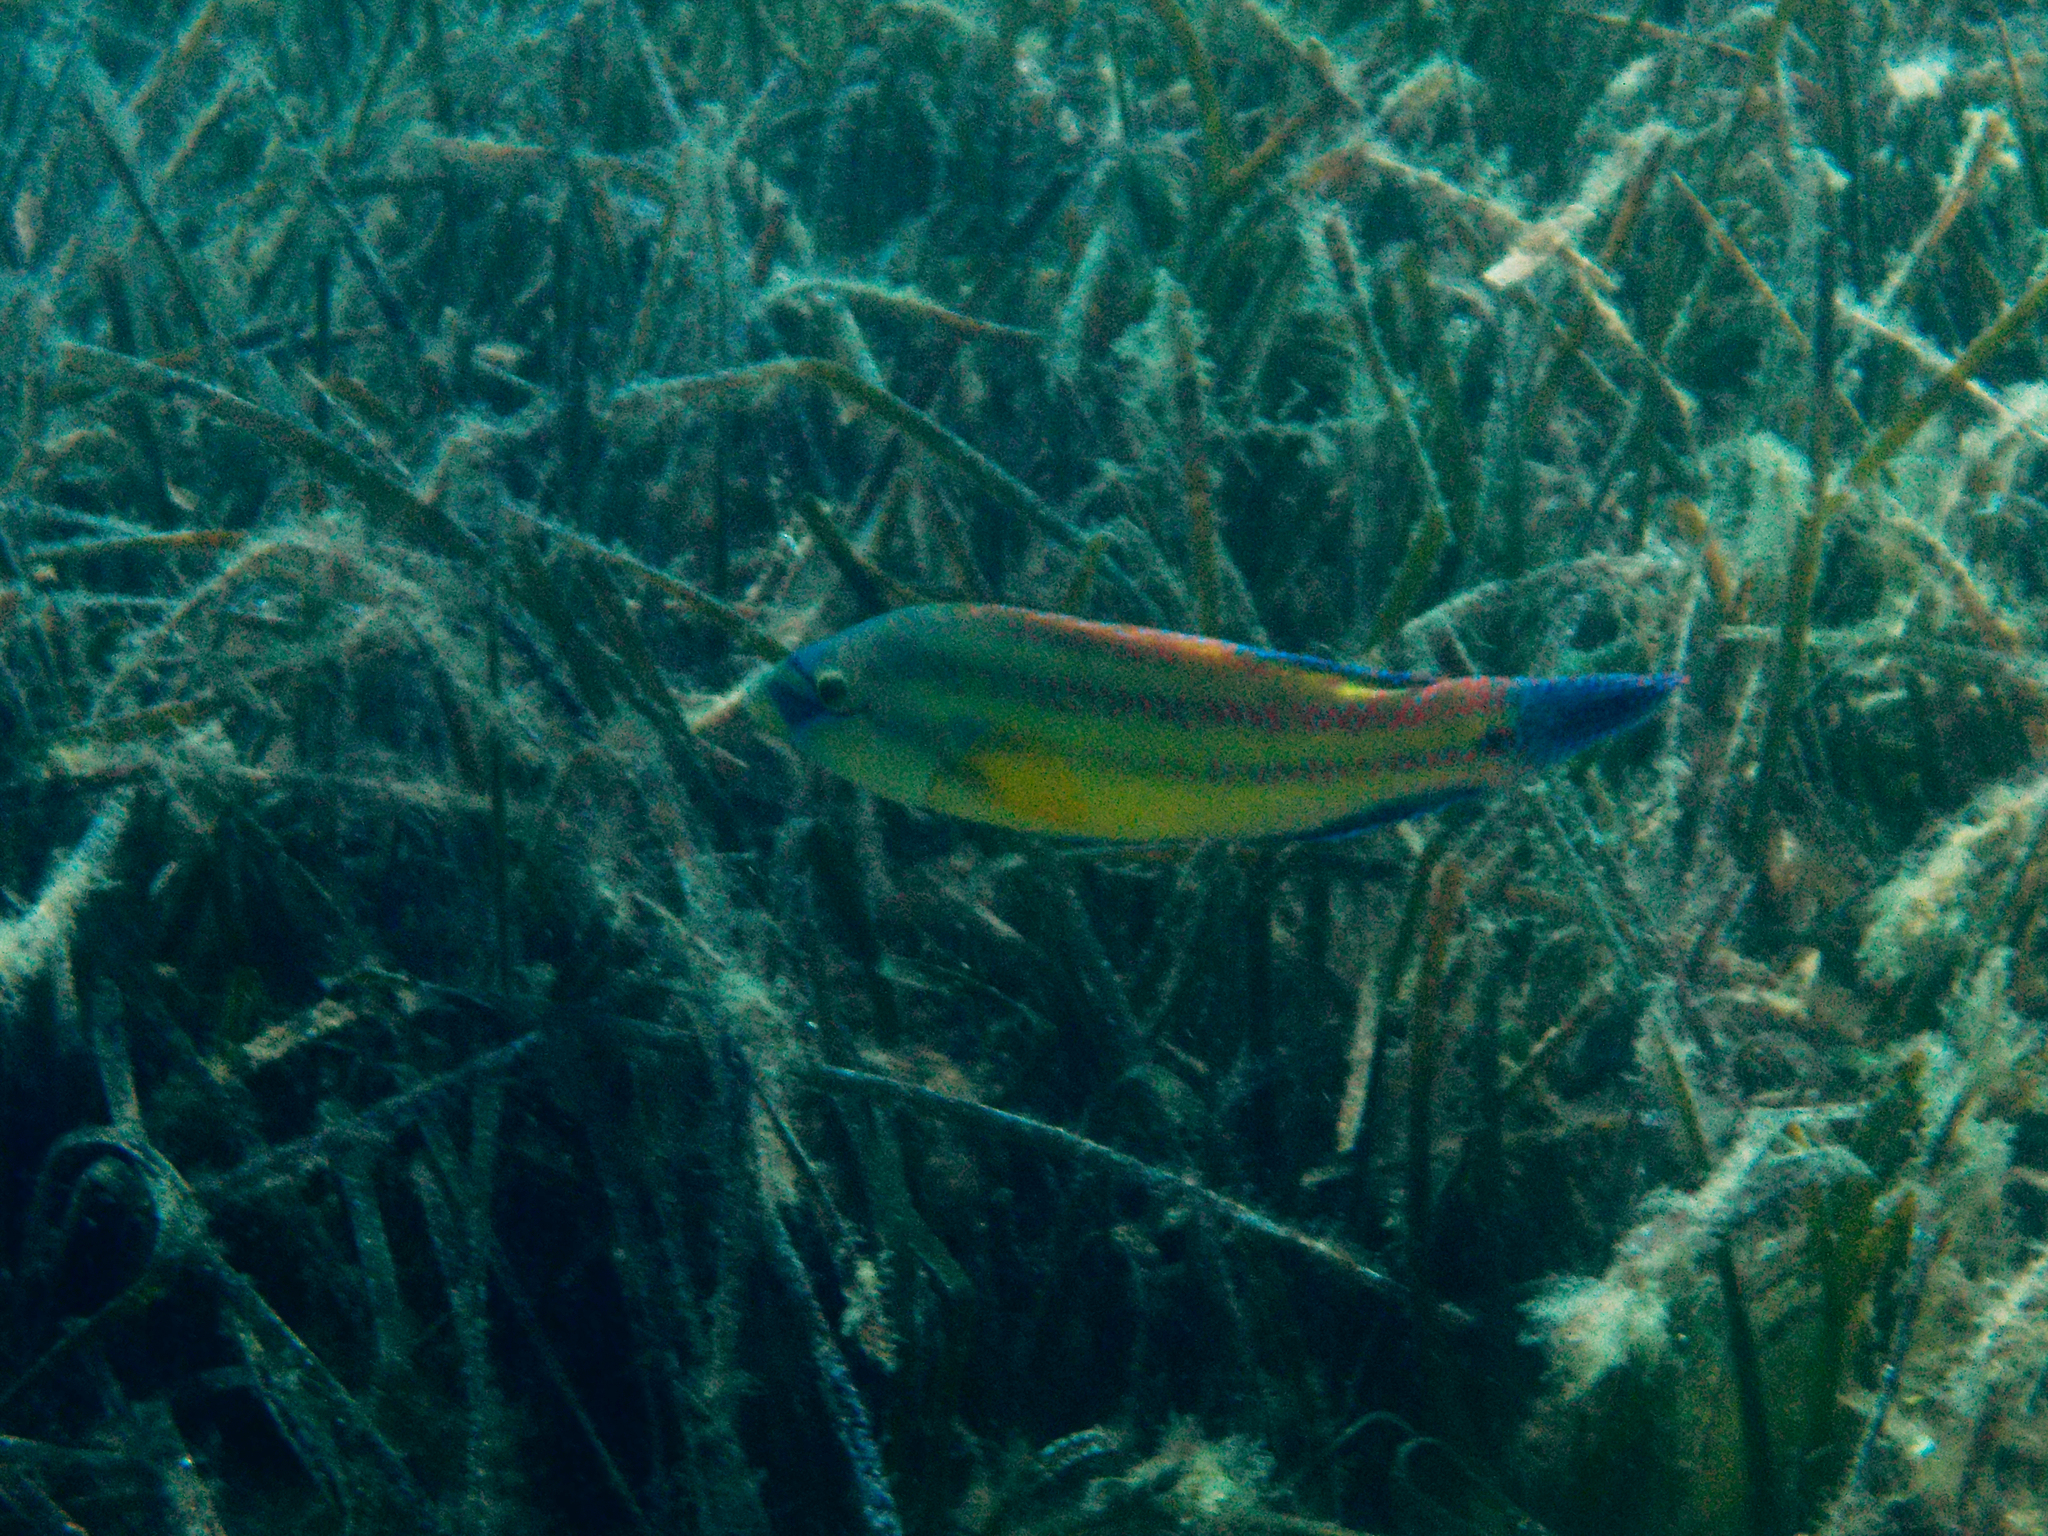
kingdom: Animalia
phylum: Chordata
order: Perciformes
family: Labridae
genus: Symphodus
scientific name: Symphodus tinca
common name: Peacock wrasse
